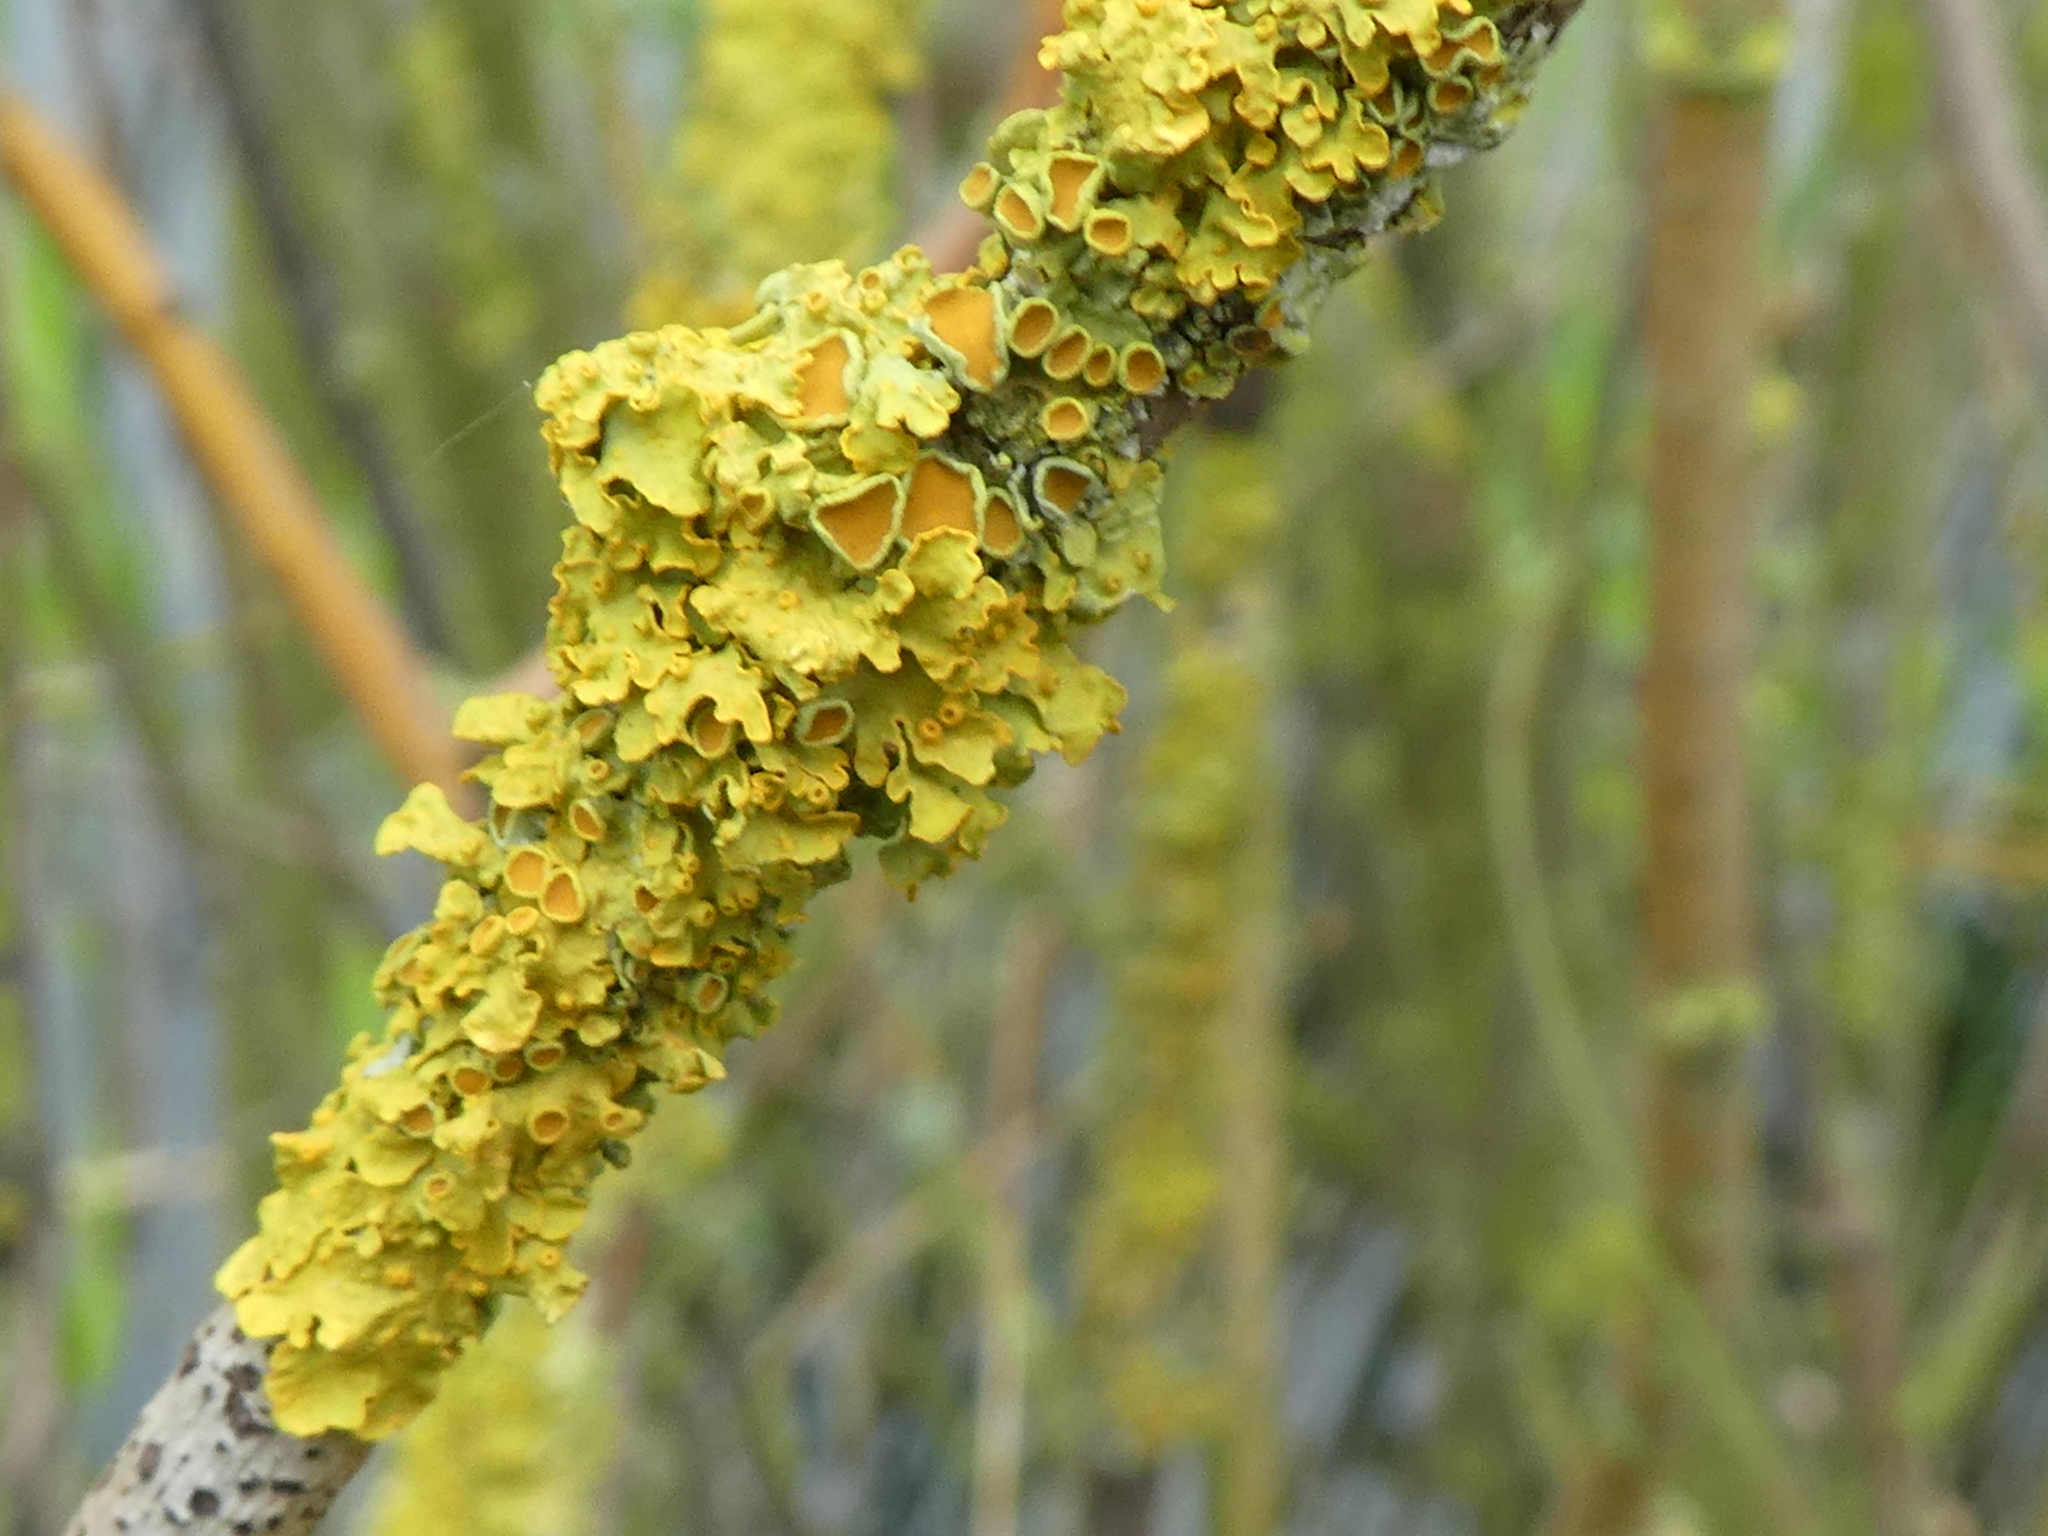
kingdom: Fungi
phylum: Ascomycota
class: Lecanoromycetes
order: Teloschistales
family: Teloschistaceae
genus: Xanthoria
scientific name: Xanthoria parietina
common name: Common orange lichen
